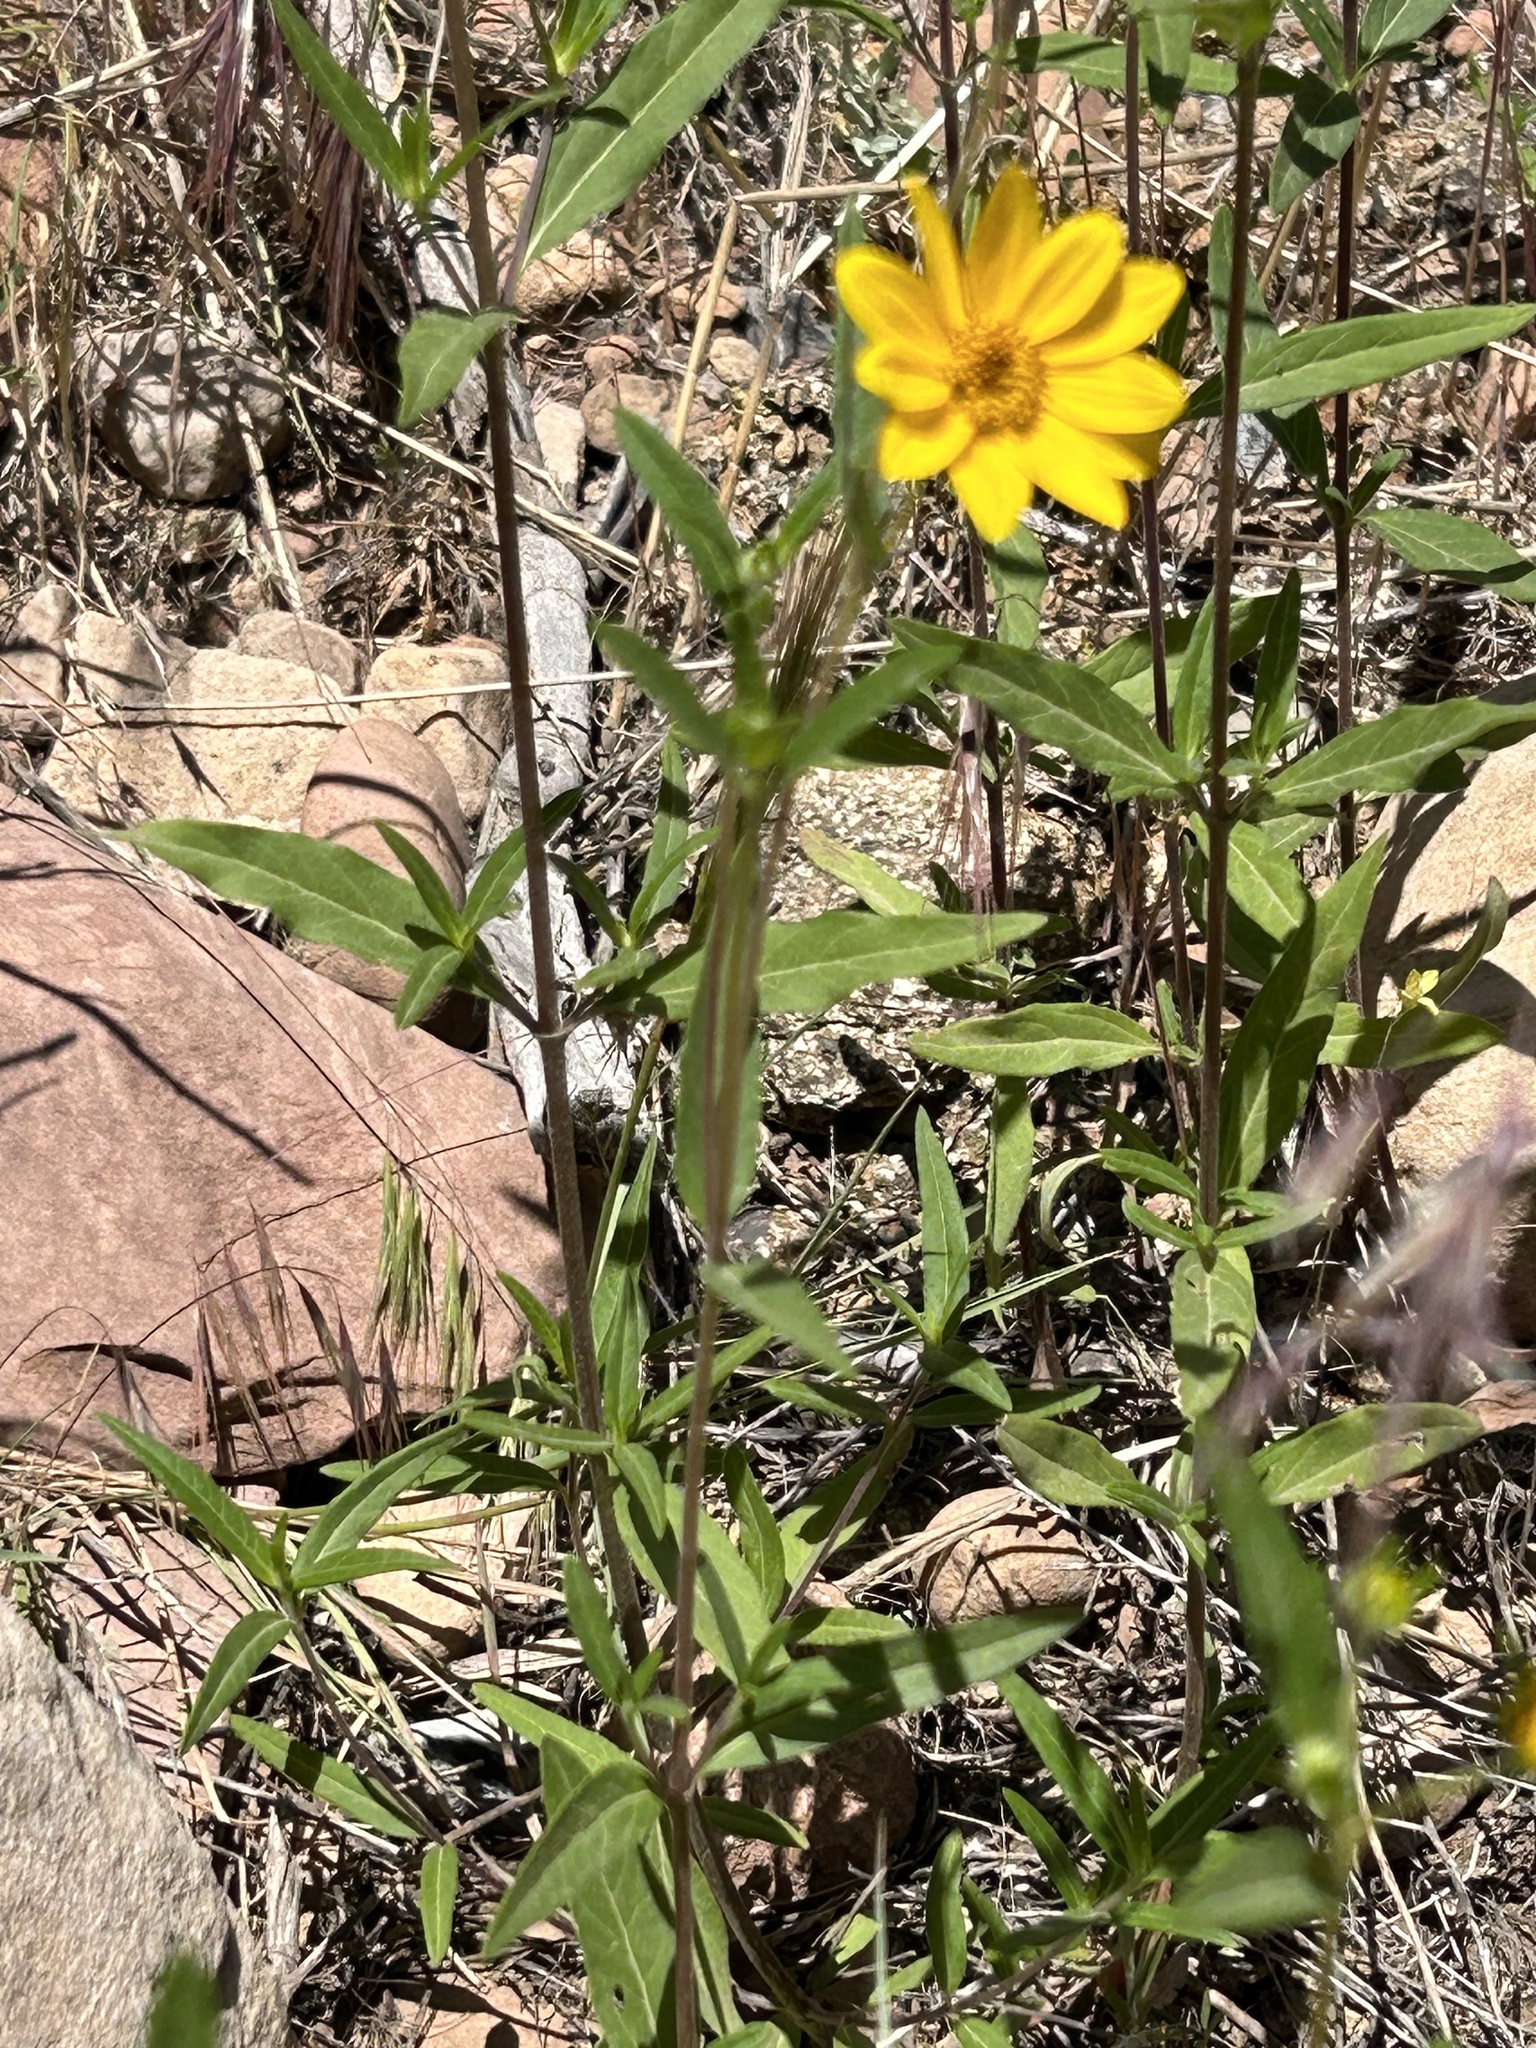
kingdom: Plantae
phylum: Tracheophyta
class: Magnoliopsida
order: Asterales
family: Asteraceae
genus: Heliomeris
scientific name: Heliomeris multiflora
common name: Showy goldeneye
